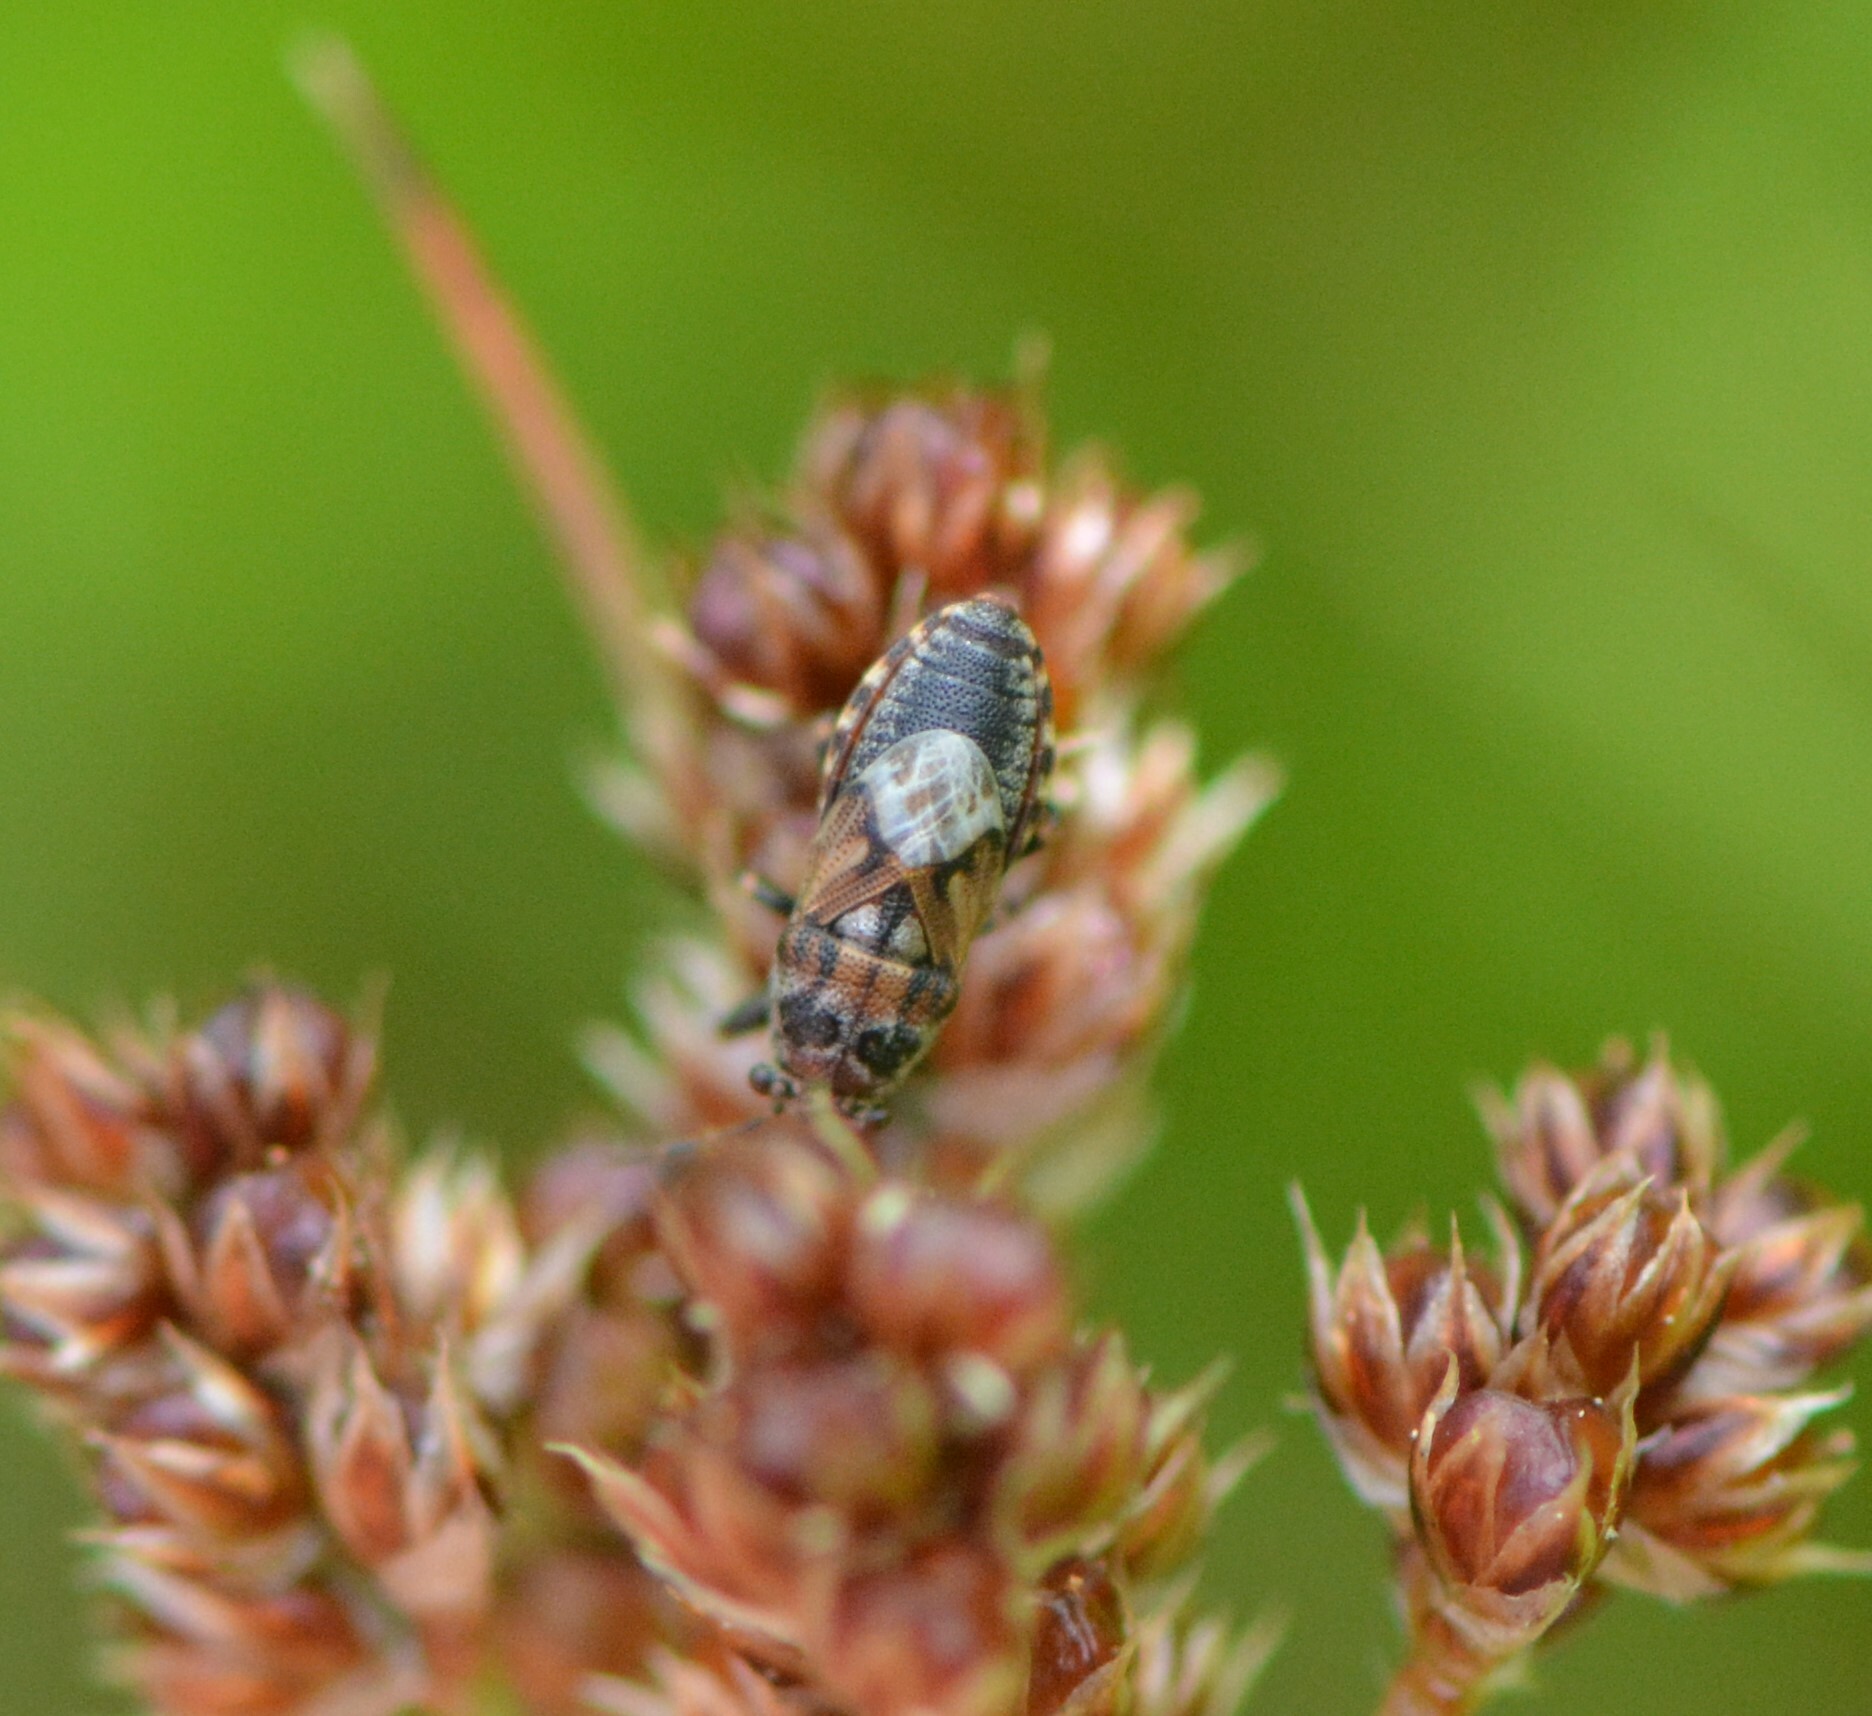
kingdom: Animalia
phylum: Arthropoda
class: Insecta
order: Hemiptera
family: Pachygronthidae
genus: Phlegyas
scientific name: Phlegyas abbreviatus
